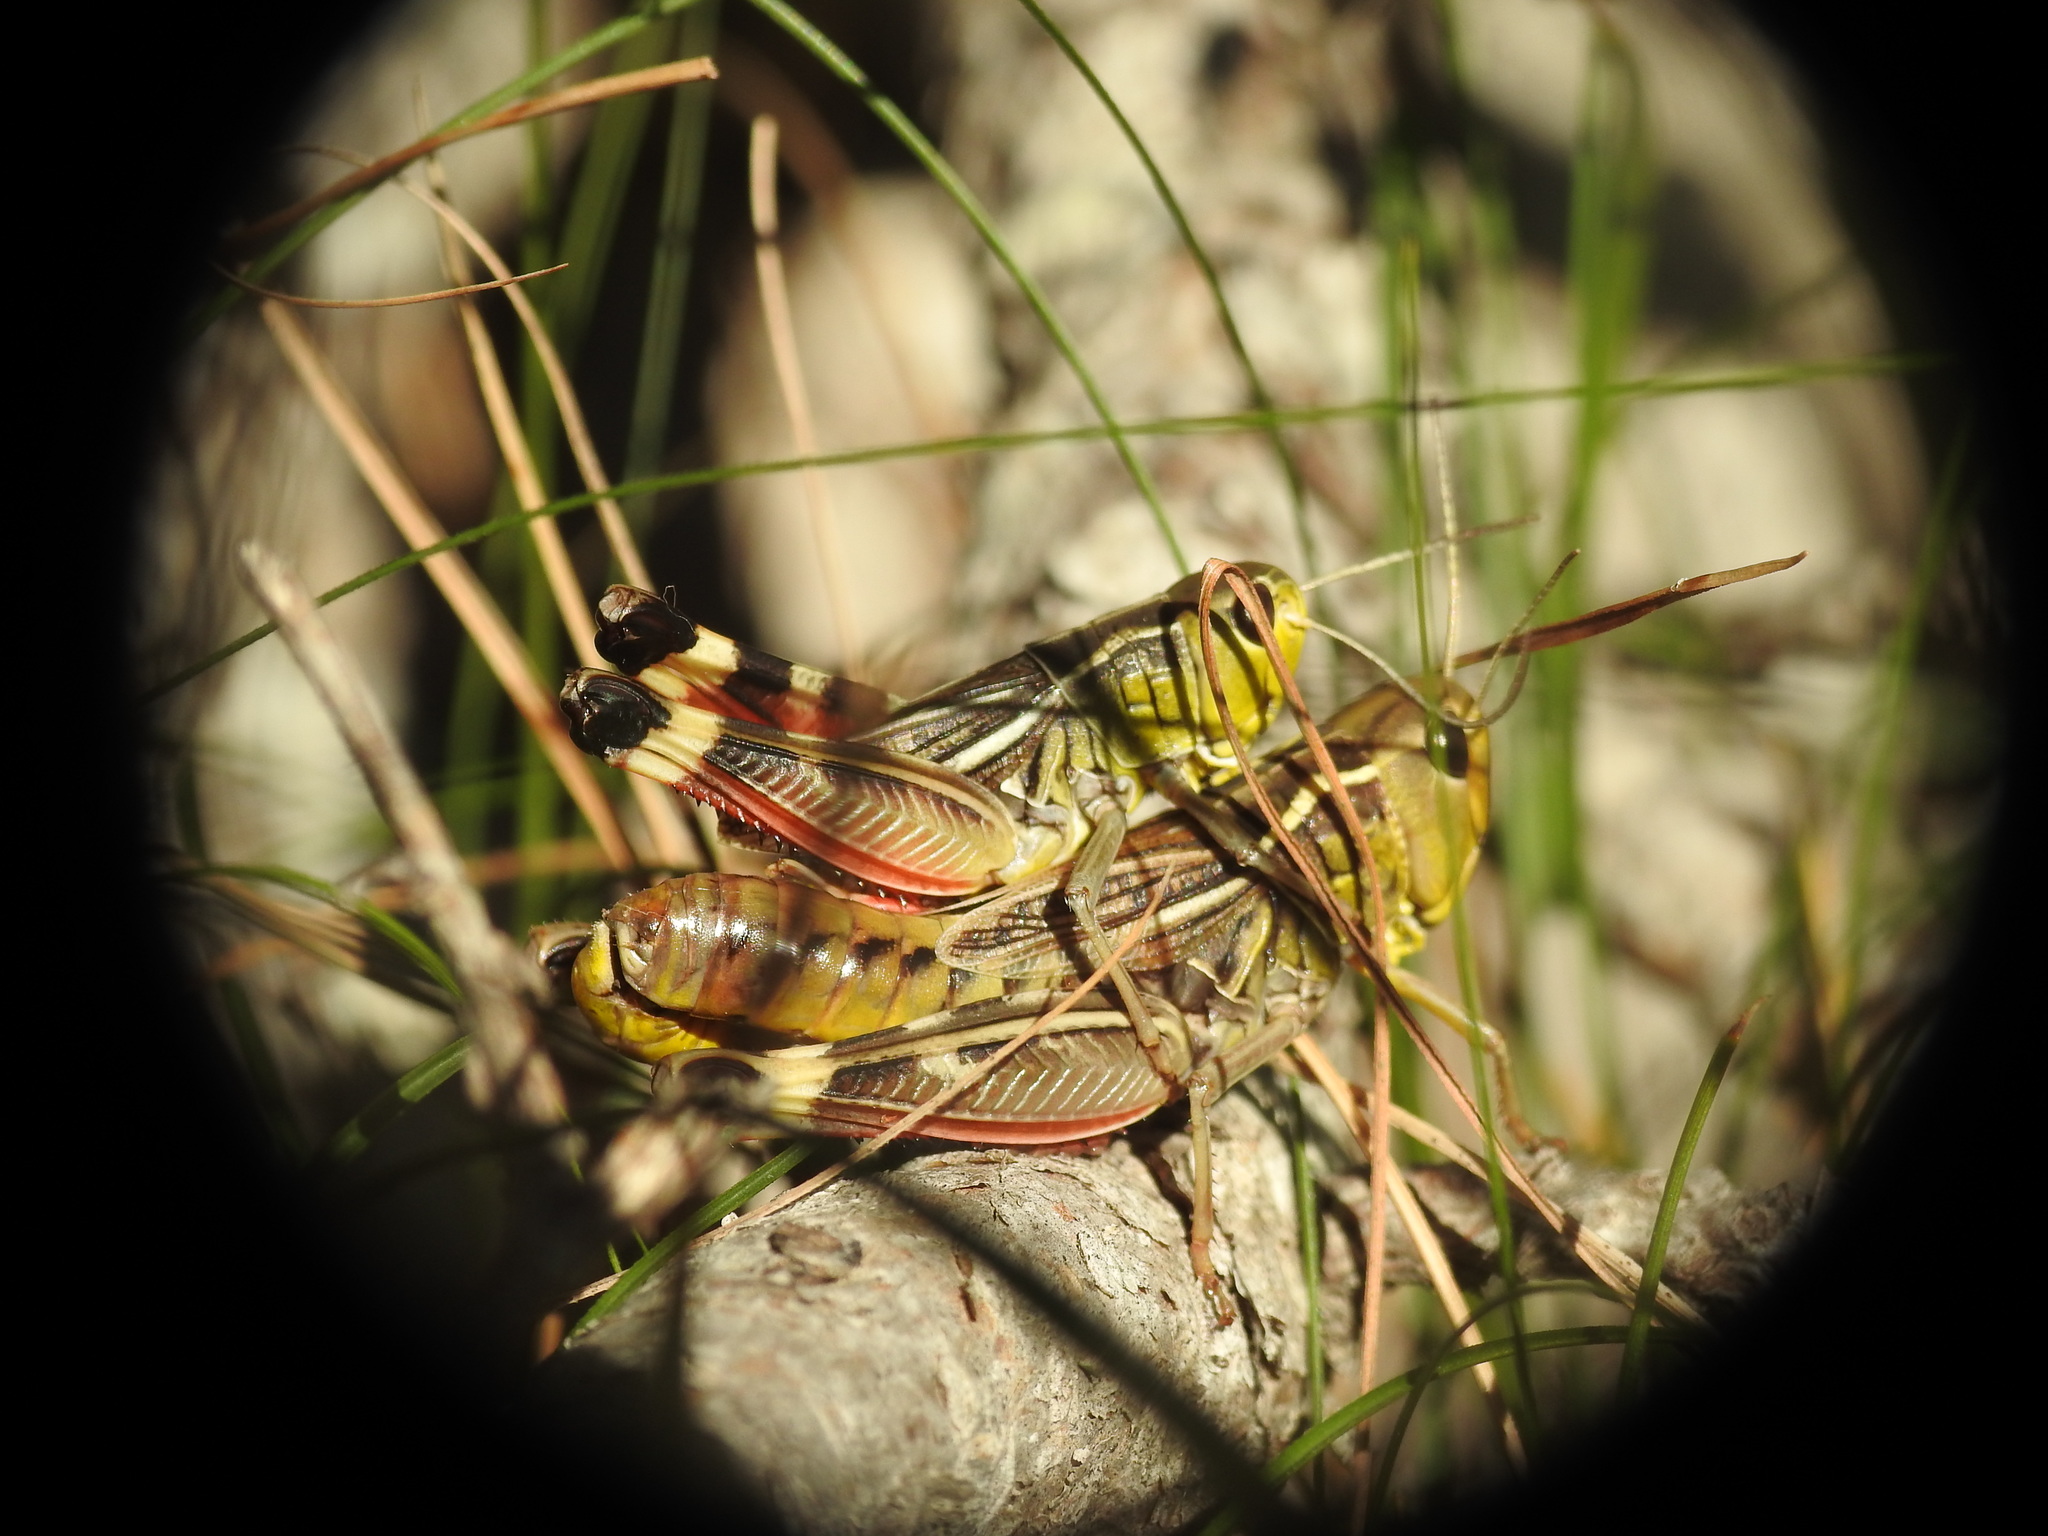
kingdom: Animalia
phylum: Arthropoda
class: Insecta
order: Orthoptera
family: Acrididae
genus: Arcyptera
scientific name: Arcyptera brevipennis
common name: Western banded grasshopper
